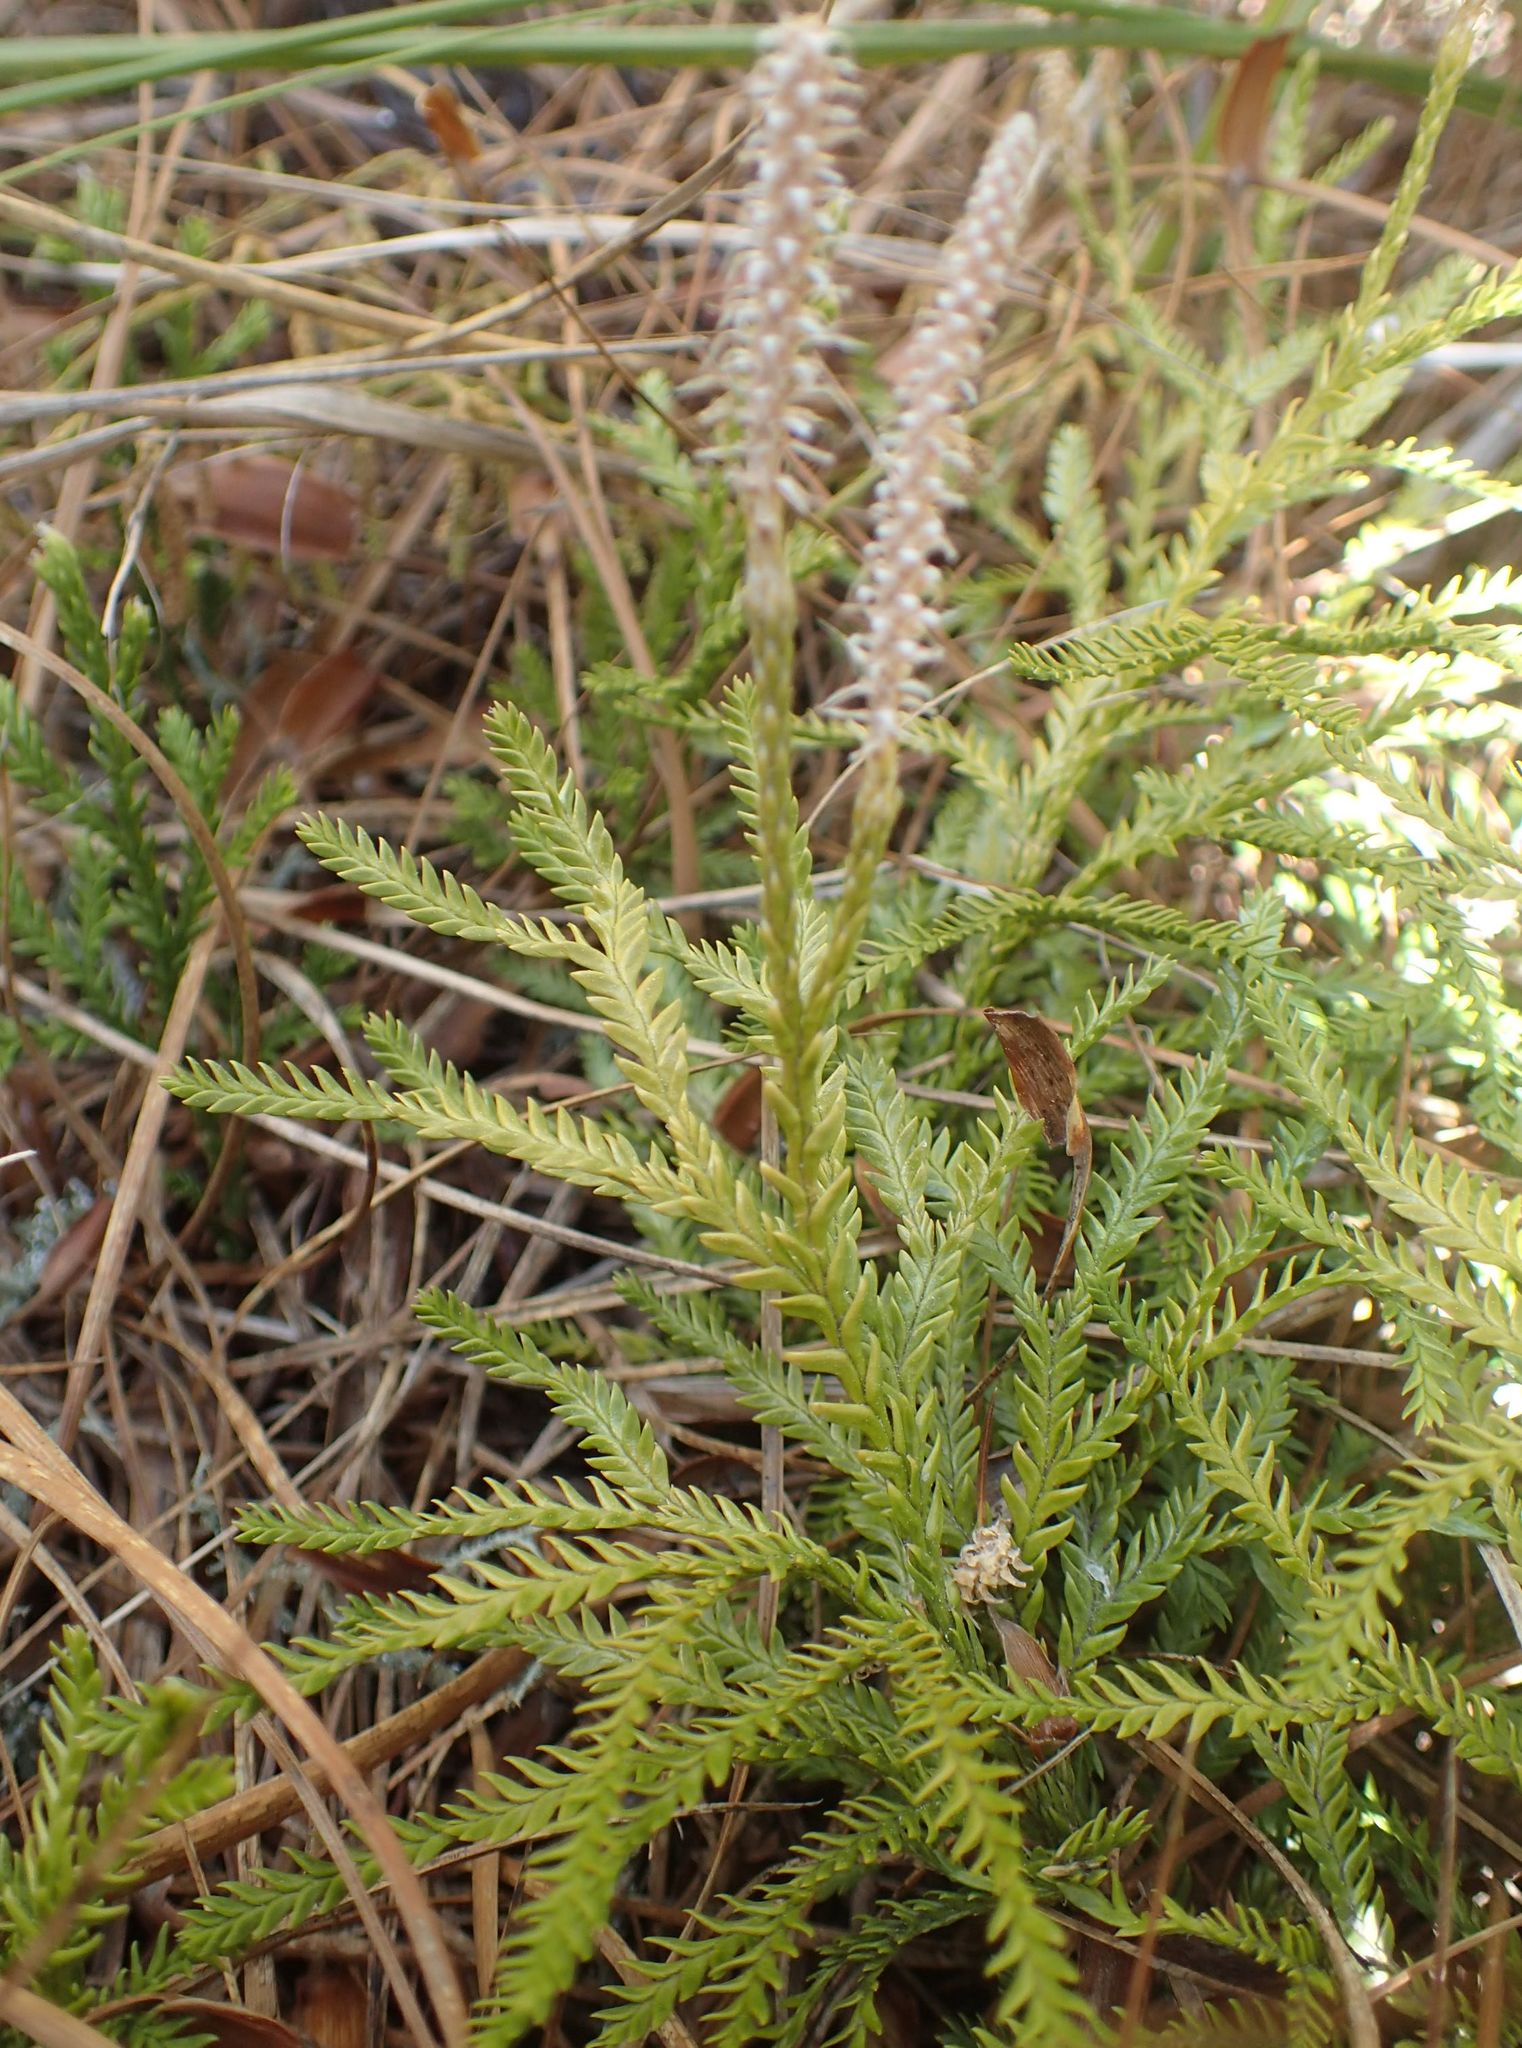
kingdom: Plantae
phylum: Tracheophyta
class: Lycopodiopsida
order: Lycopodiales
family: Lycopodiaceae
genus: Diphasium
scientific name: Diphasium scariosum
